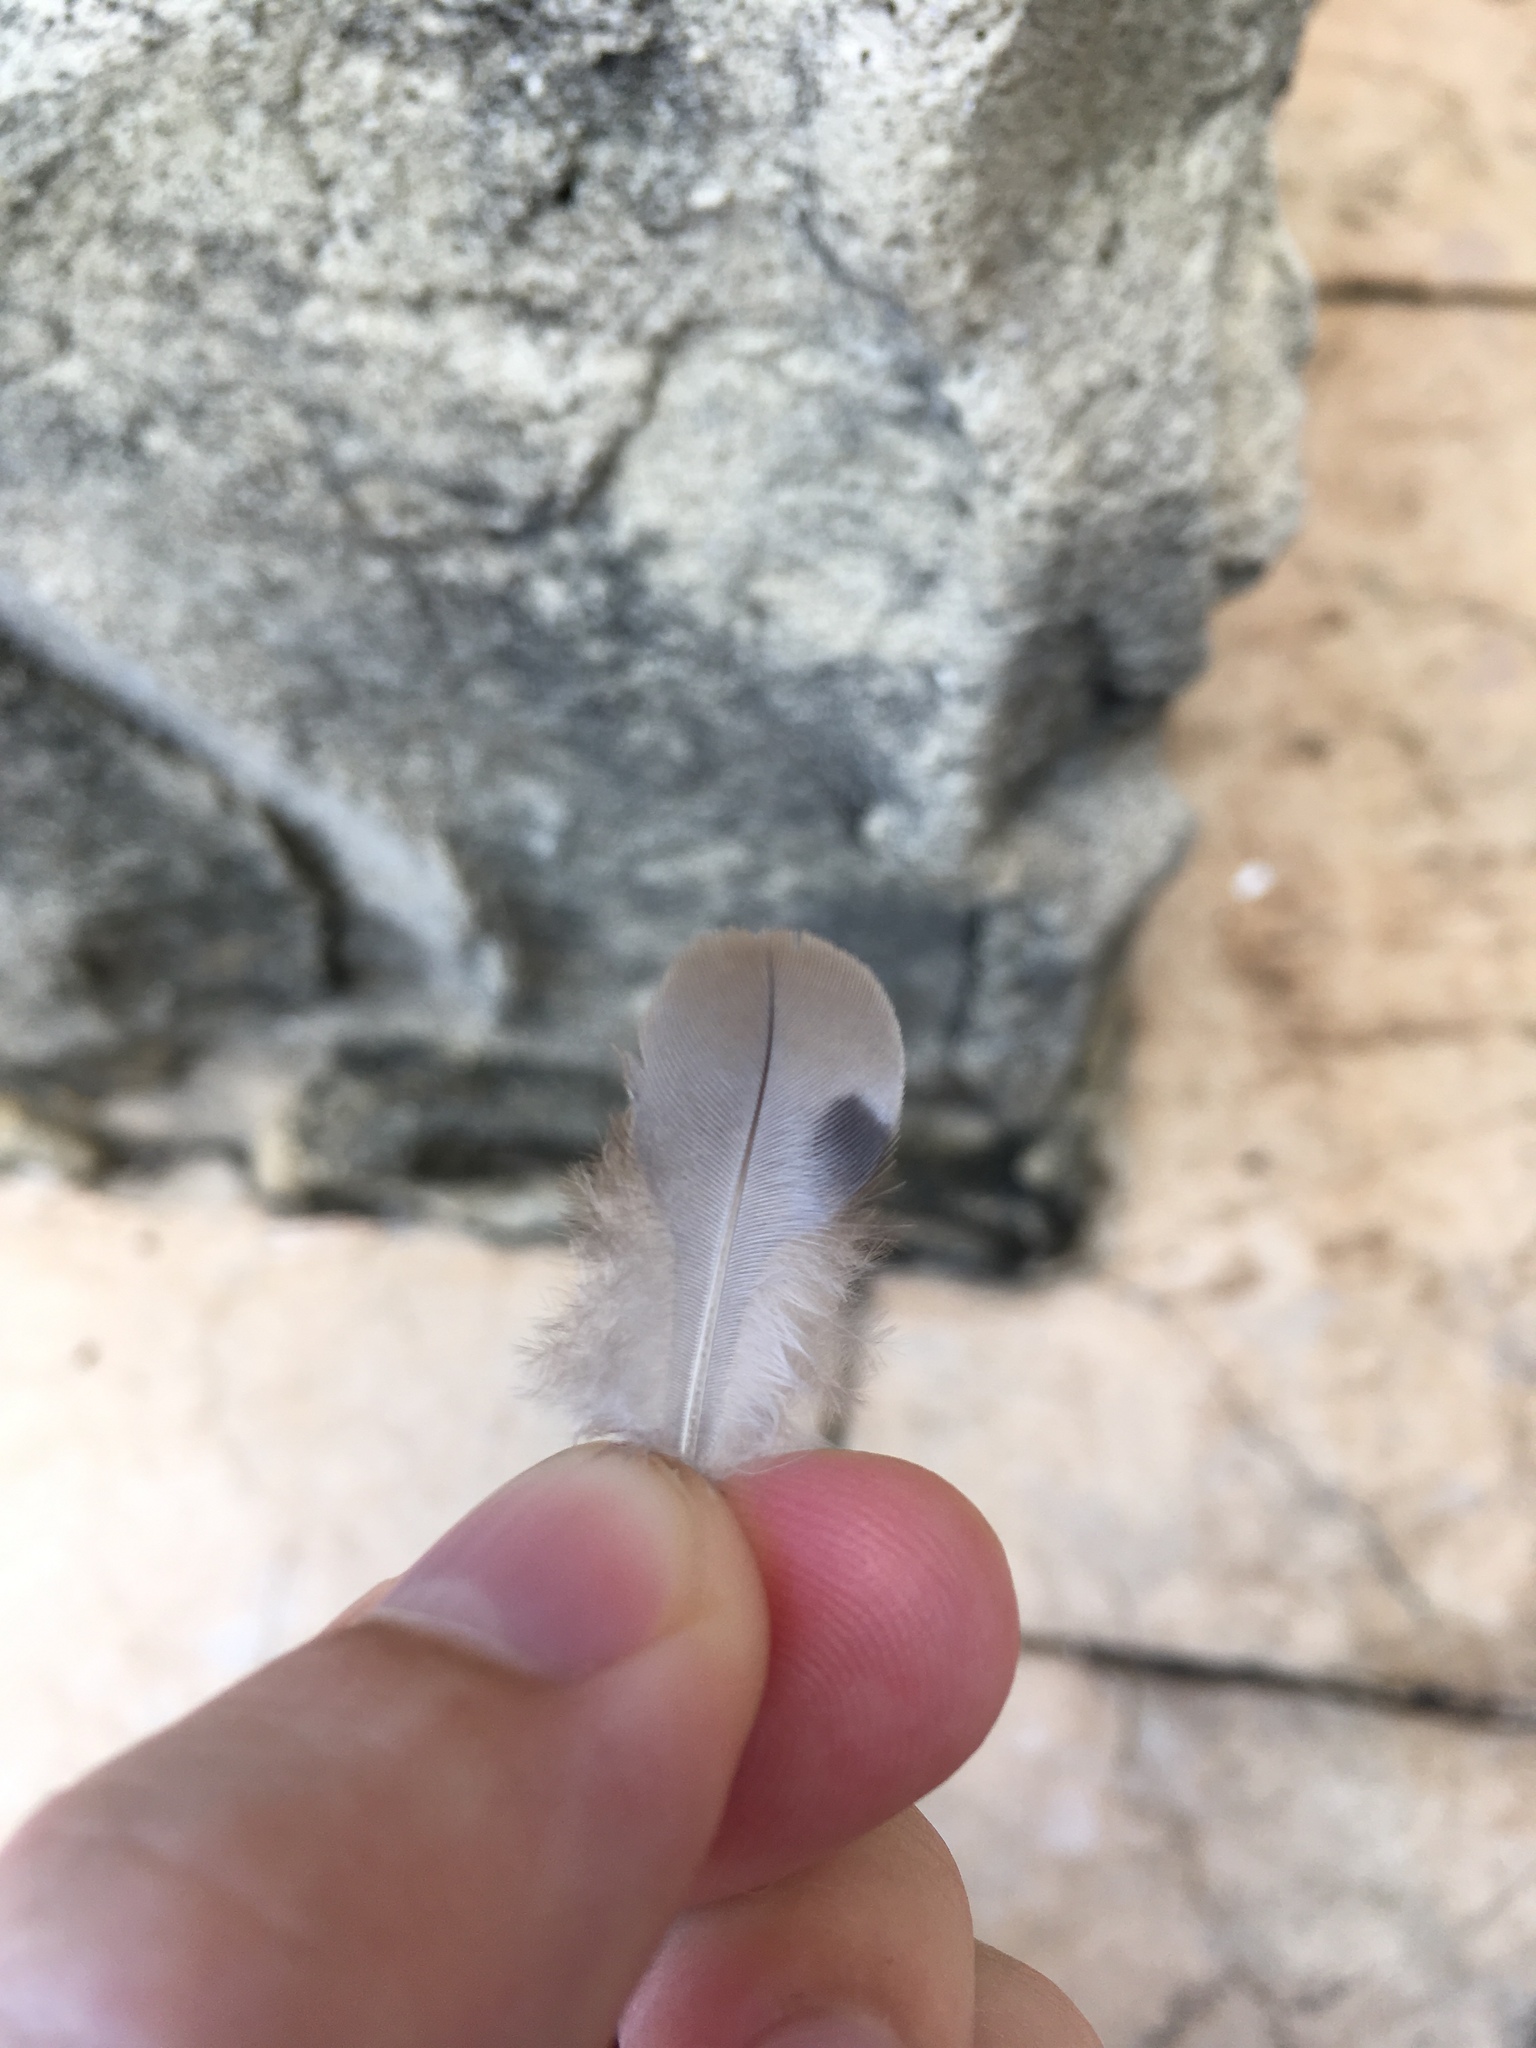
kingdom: Animalia
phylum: Chordata
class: Aves
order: Columbiformes
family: Columbidae
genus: Zenaida
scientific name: Zenaida macroura
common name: Mourning dove
